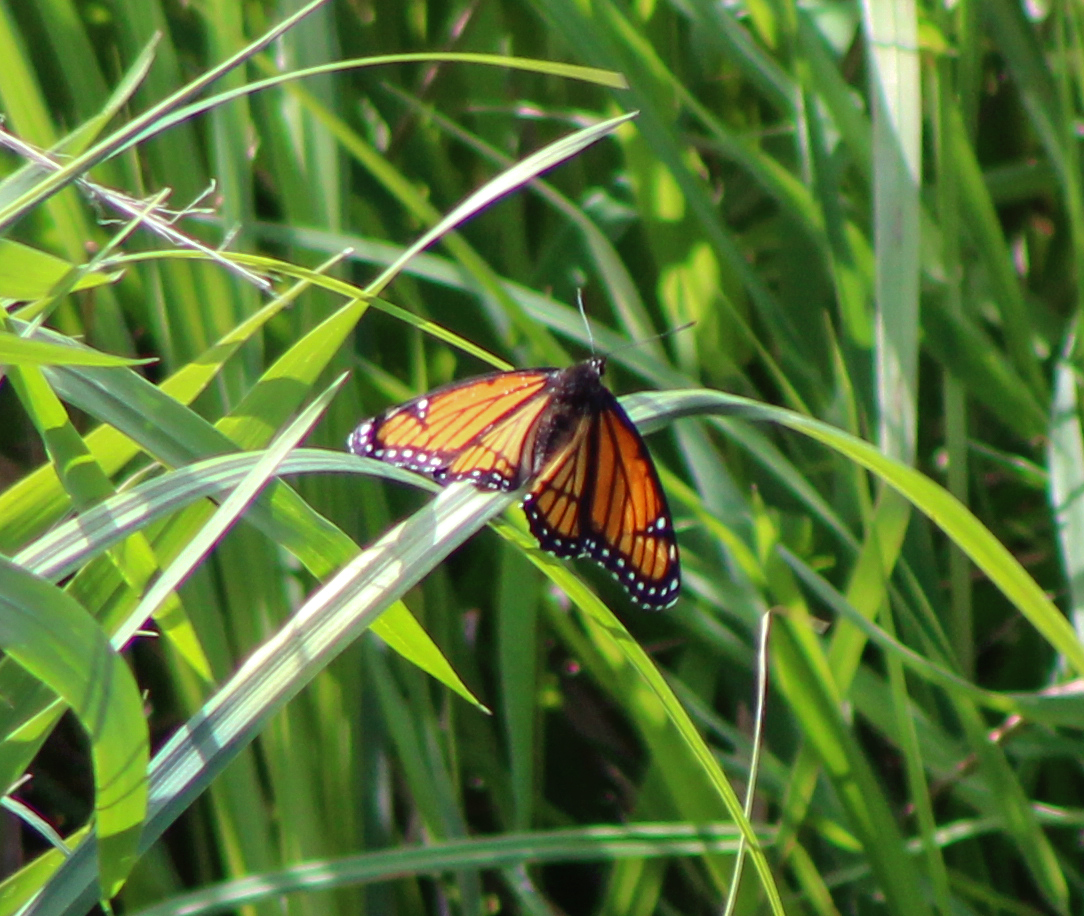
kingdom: Animalia
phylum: Arthropoda
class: Insecta
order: Lepidoptera
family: Nymphalidae
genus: Limenitis
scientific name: Limenitis archippus
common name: Viceroy
